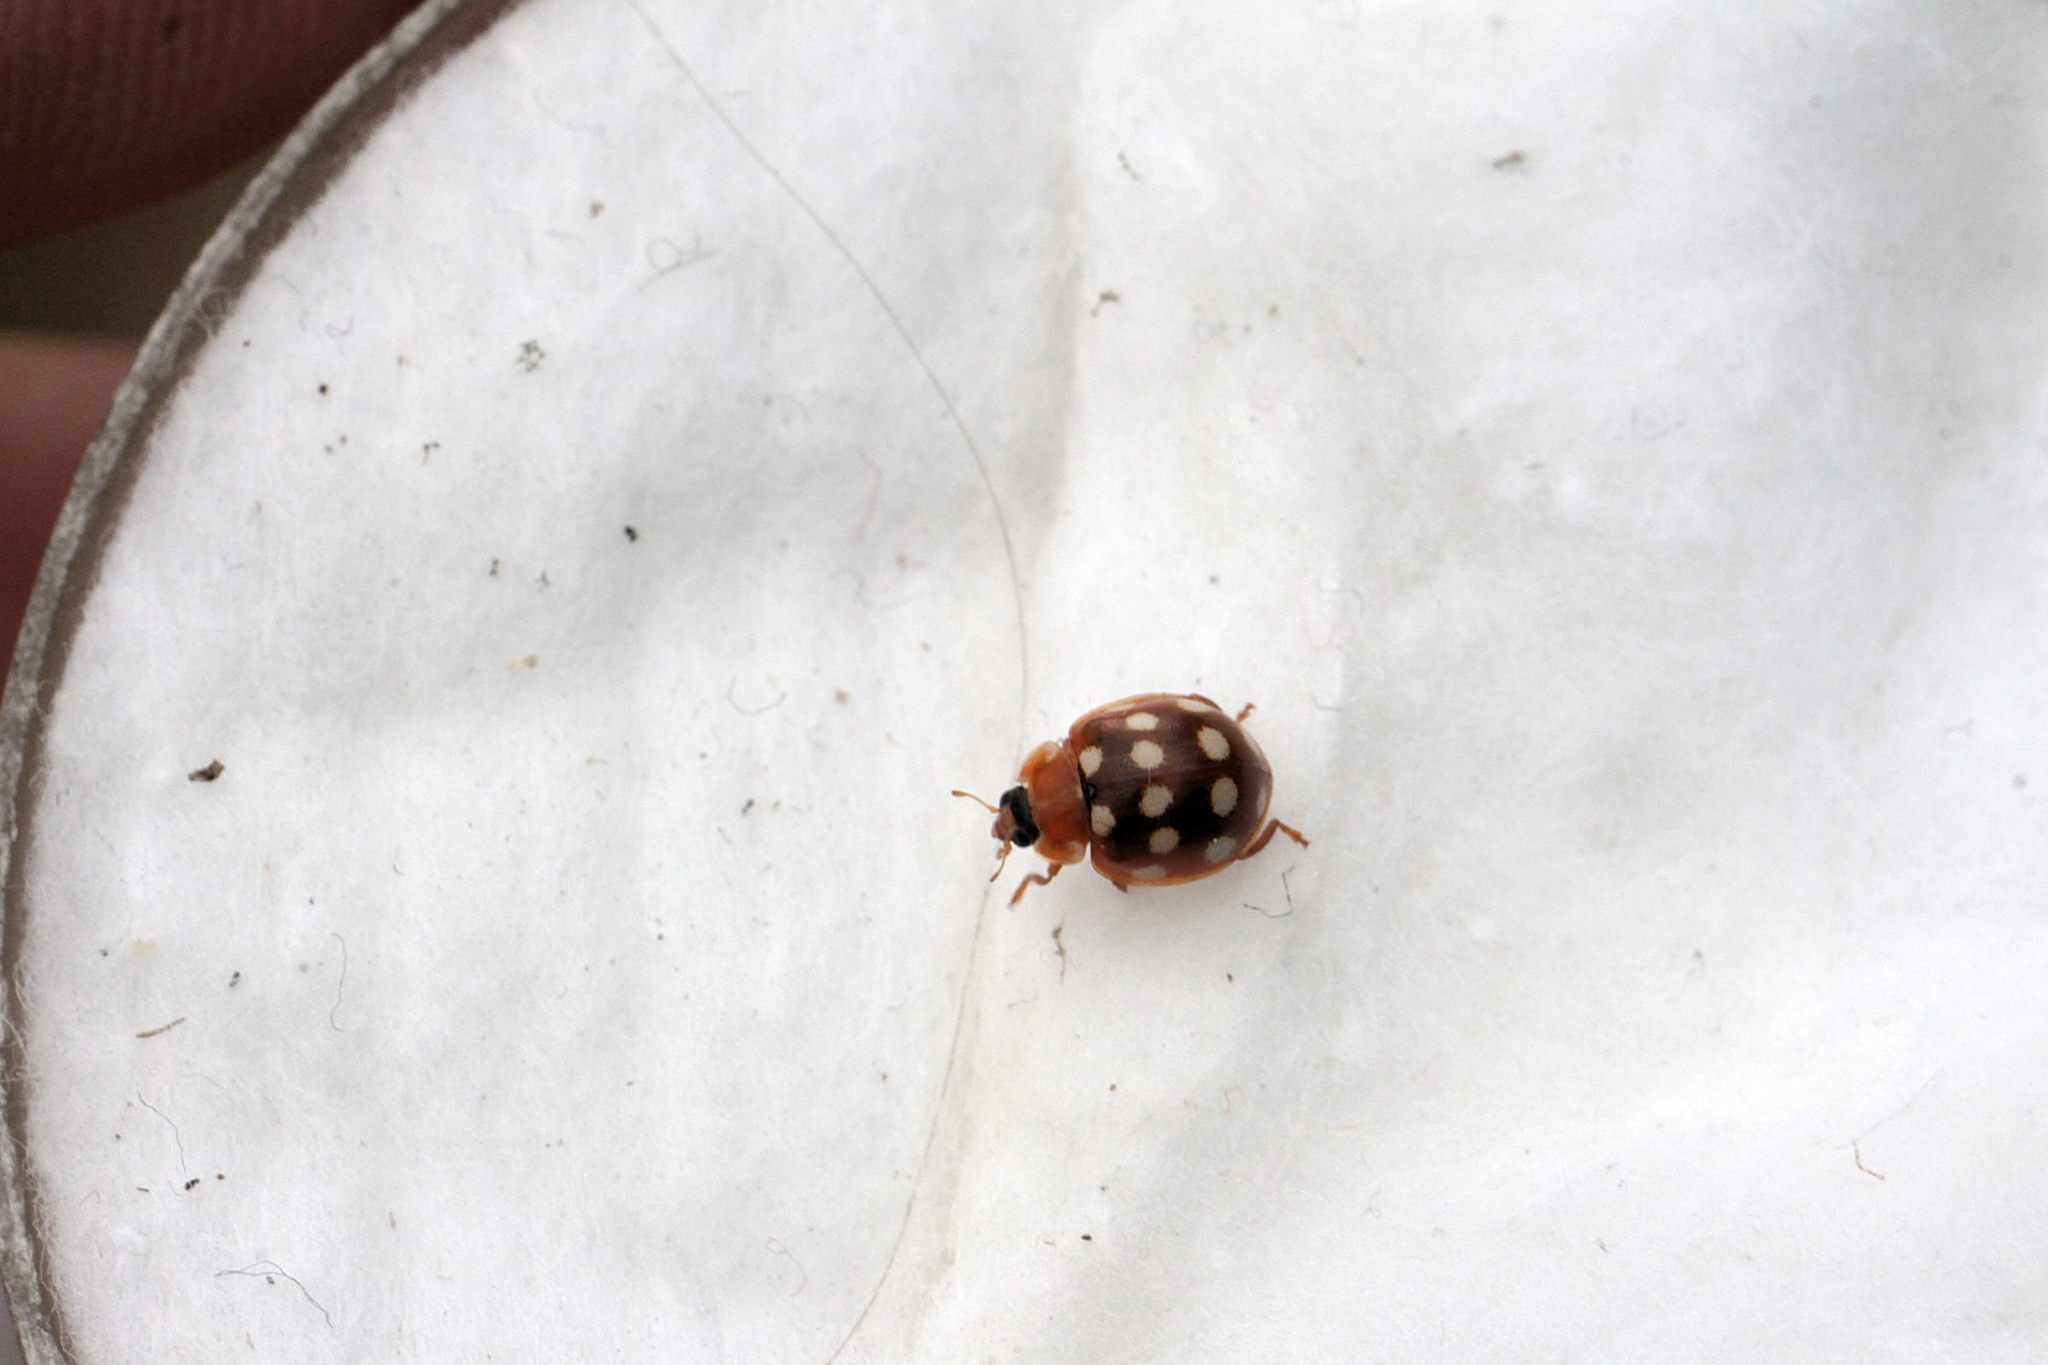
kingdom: Animalia
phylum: Arthropoda
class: Insecta
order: Coleoptera
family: Coccinellidae
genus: Calvia
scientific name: Calvia quatuordecimguttata
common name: Cream-spot ladybird
